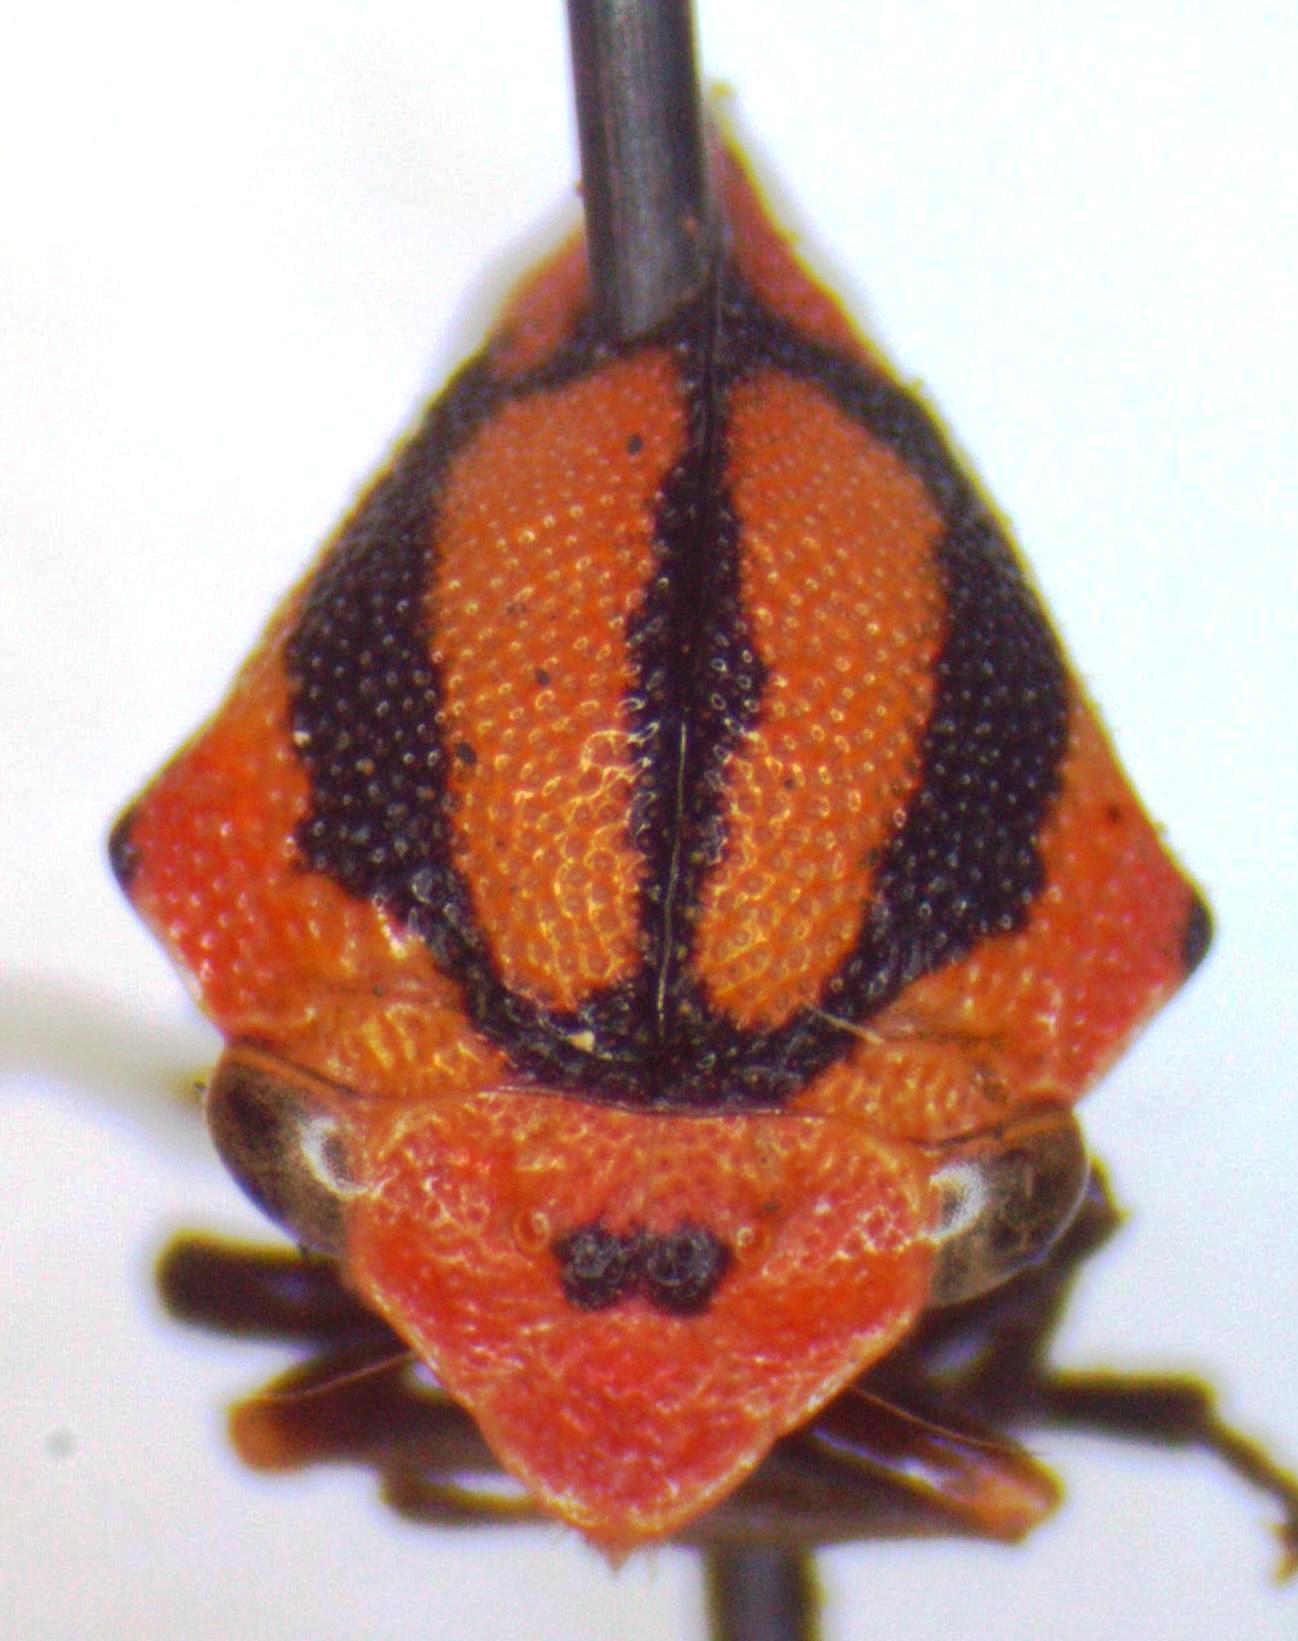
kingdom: Animalia
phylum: Arthropoda
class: Insecta
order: Hemiptera
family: Membracidae
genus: Adippe
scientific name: Adippe zebrina
